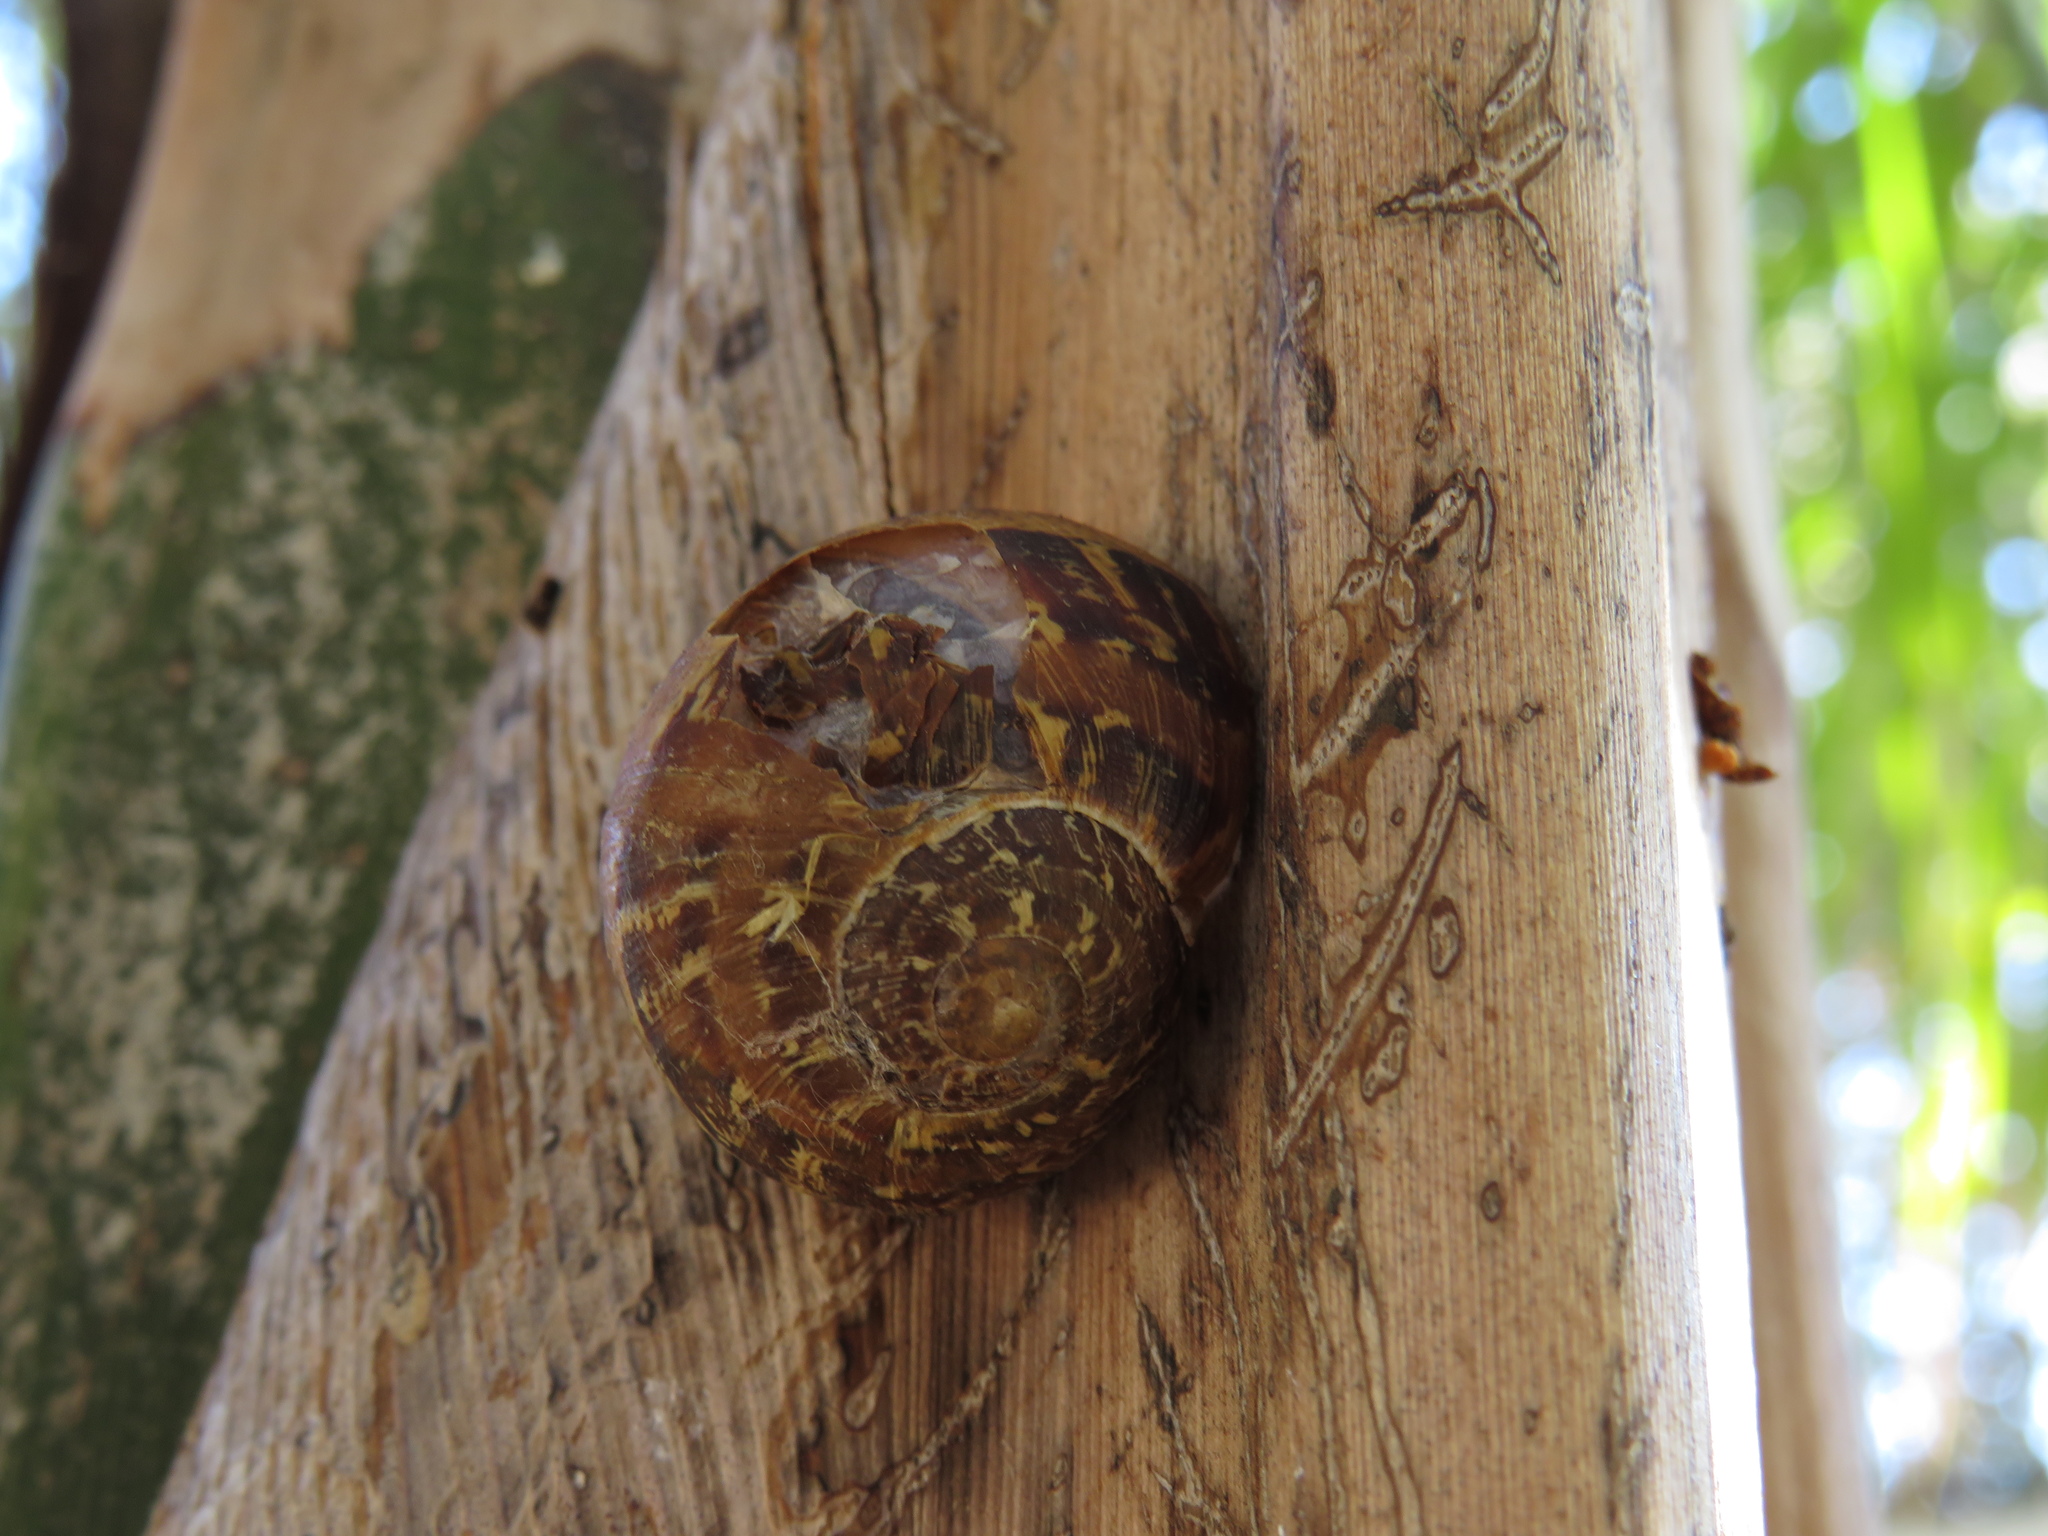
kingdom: Animalia
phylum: Mollusca
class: Gastropoda
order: Stylommatophora
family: Helicidae
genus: Cornu
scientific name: Cornu aspersum
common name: Brown garden snail
